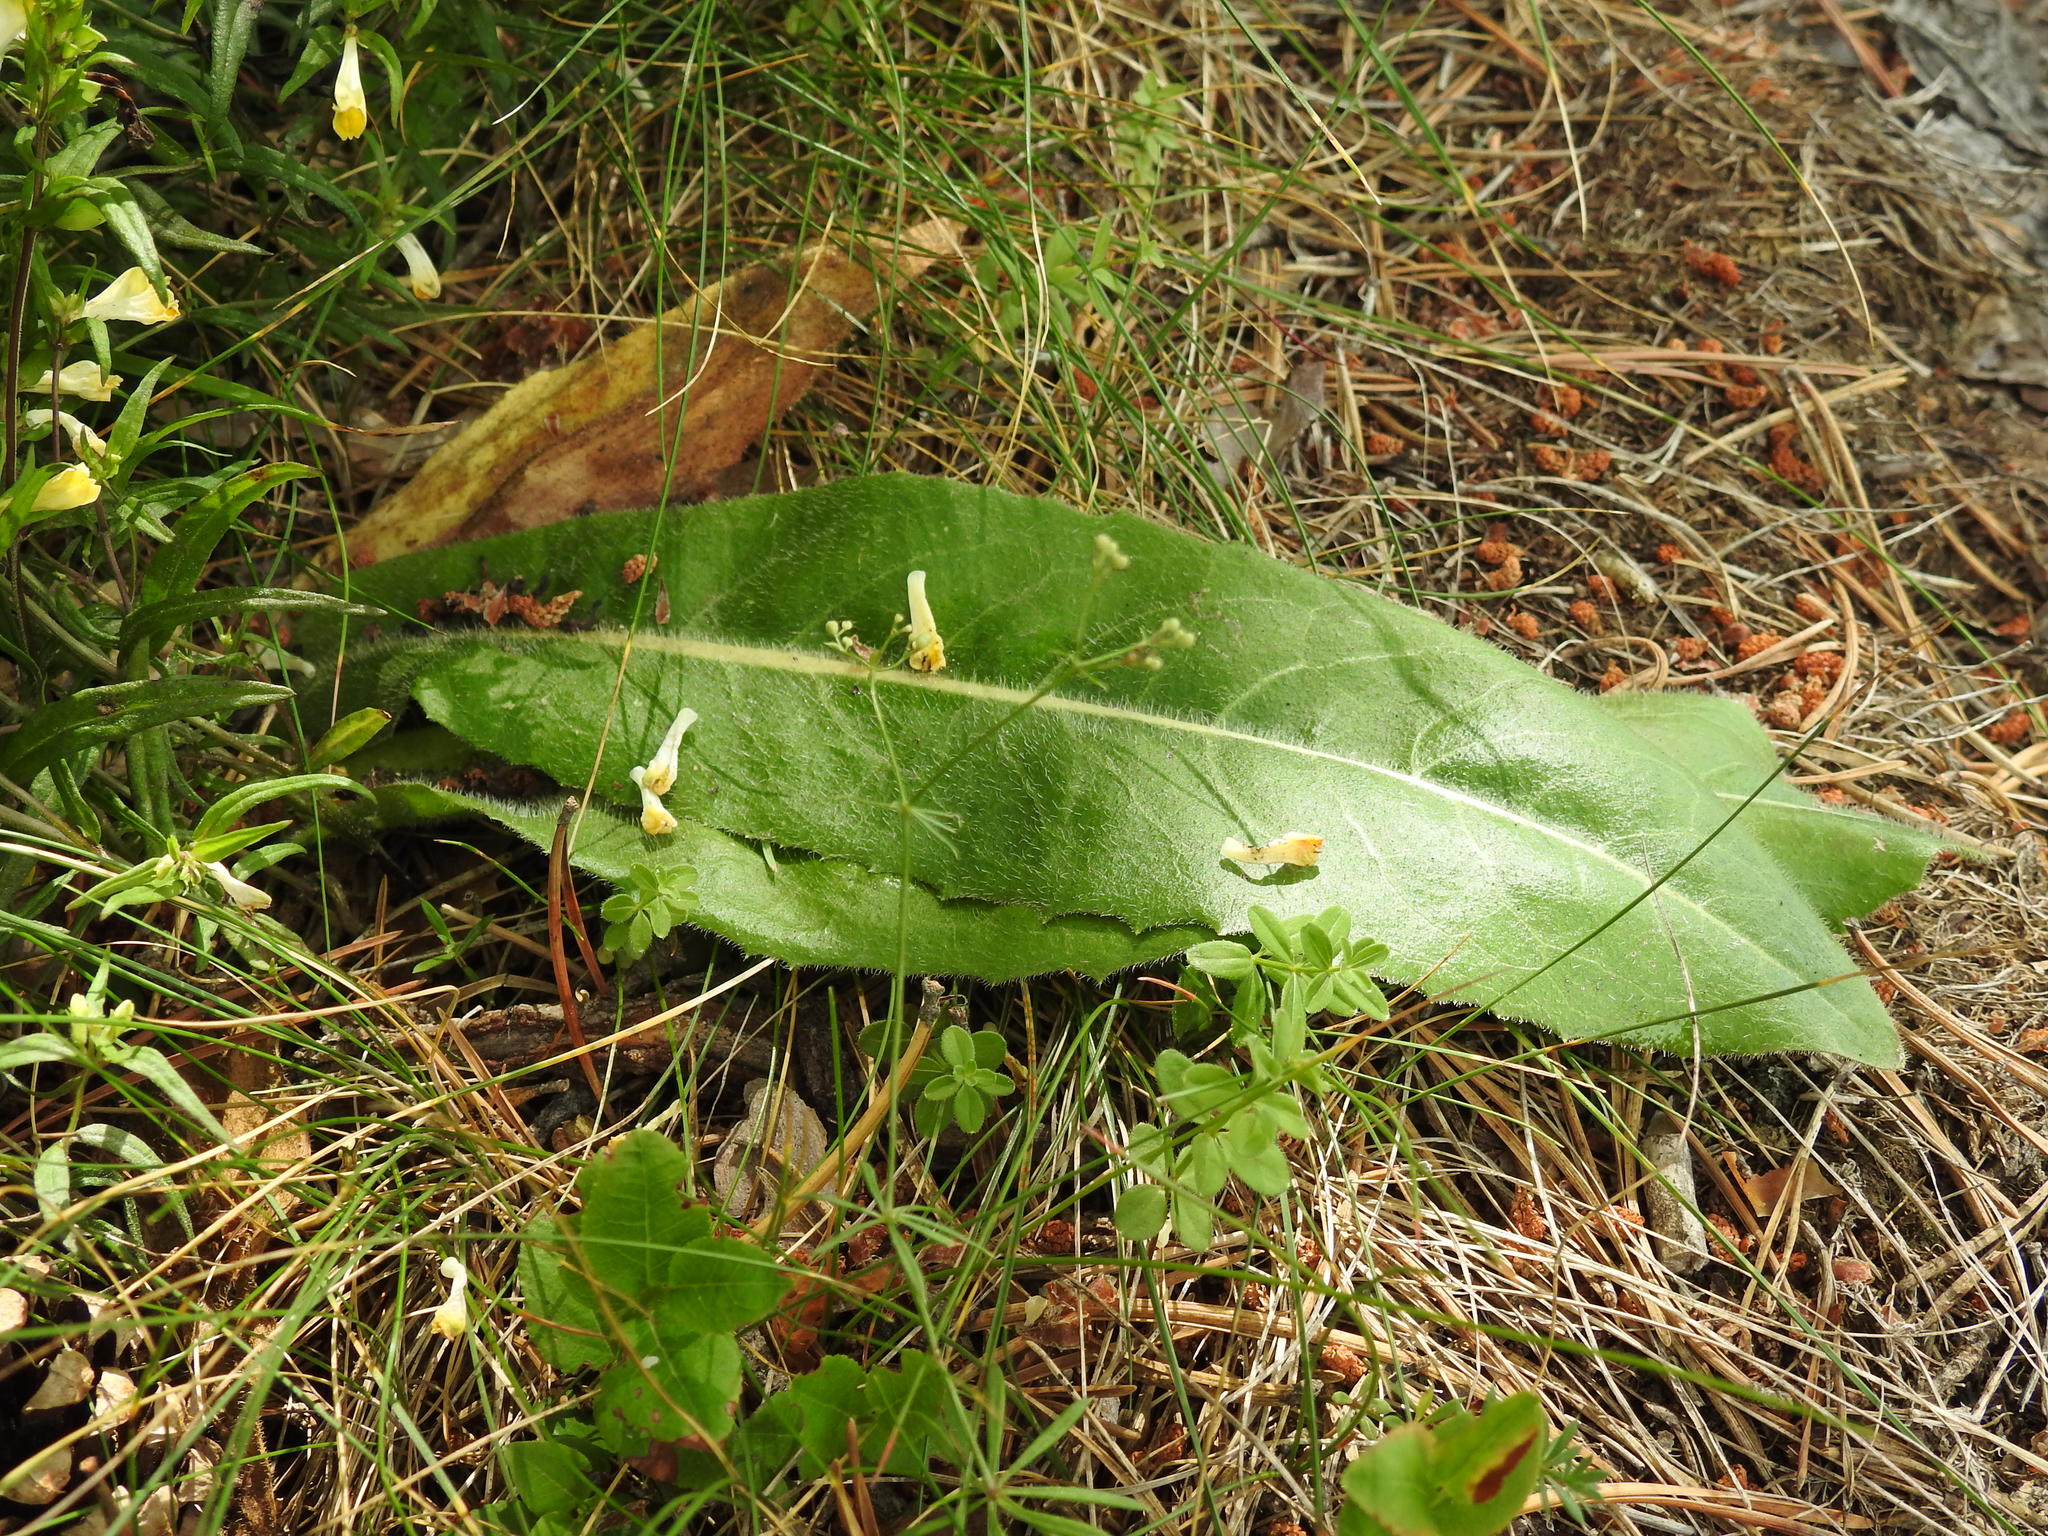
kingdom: Plantae
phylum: Tracheophyta
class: Magnoliopsida
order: Asterales
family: Asteraceae
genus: Trommsdorffia
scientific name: Trommsdorffia maculata
